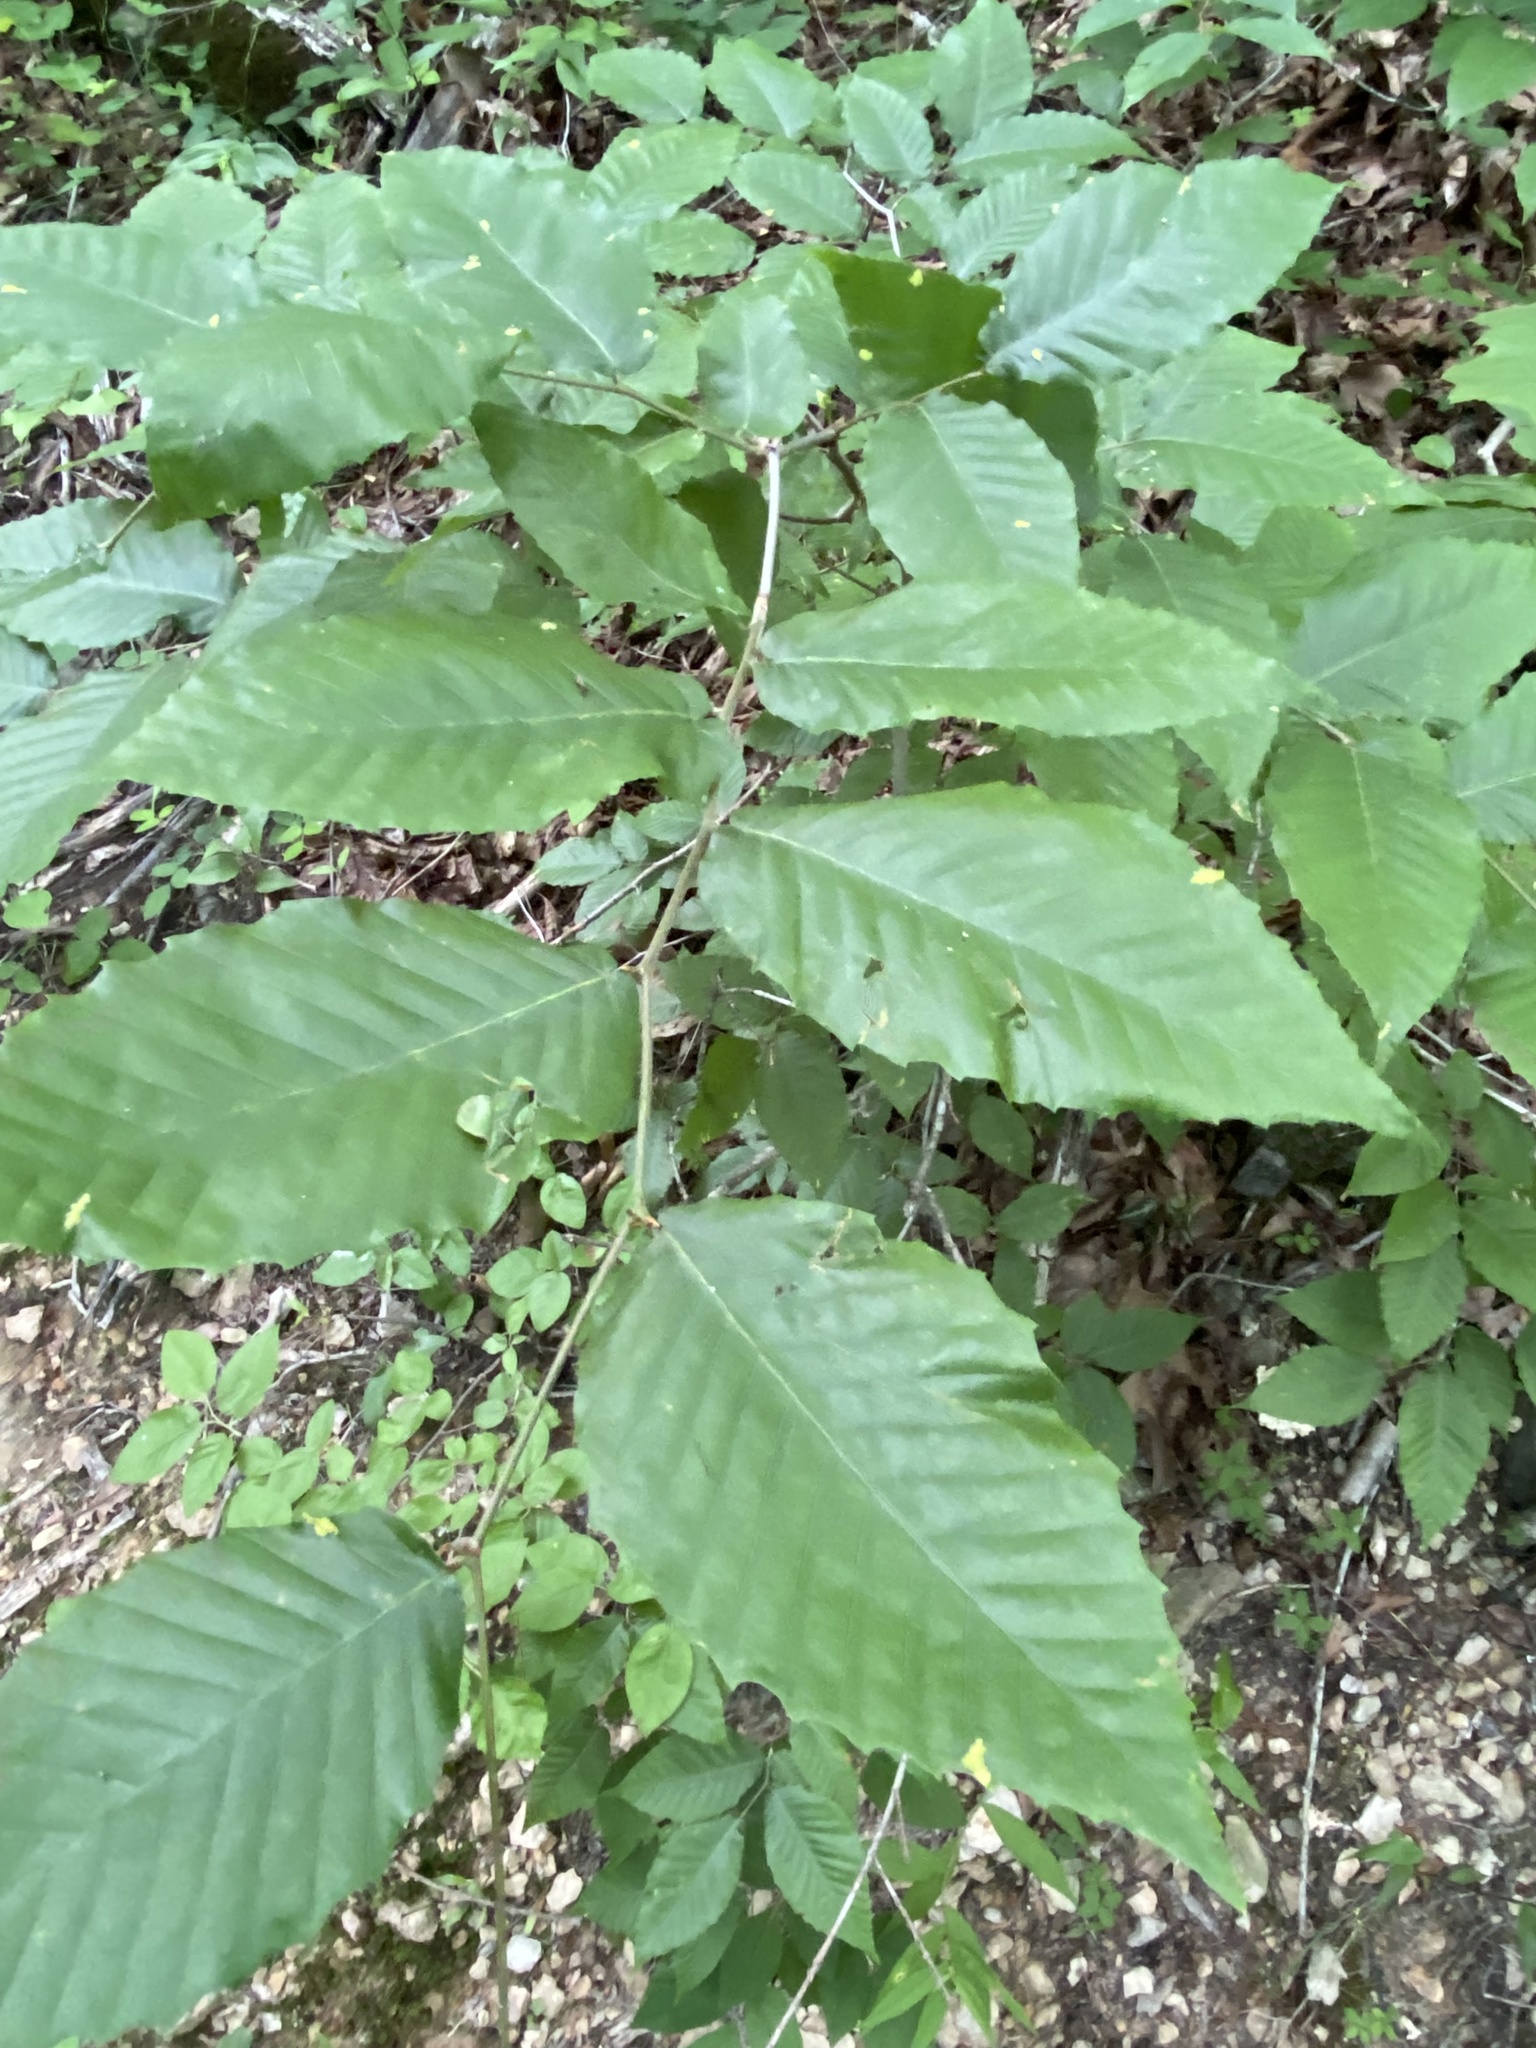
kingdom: Plantae
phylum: Tracheophyta
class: Magnoliopsida
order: Fagales
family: Fagaceae
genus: Fagus
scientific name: Fagus grandifolia
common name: American beech
